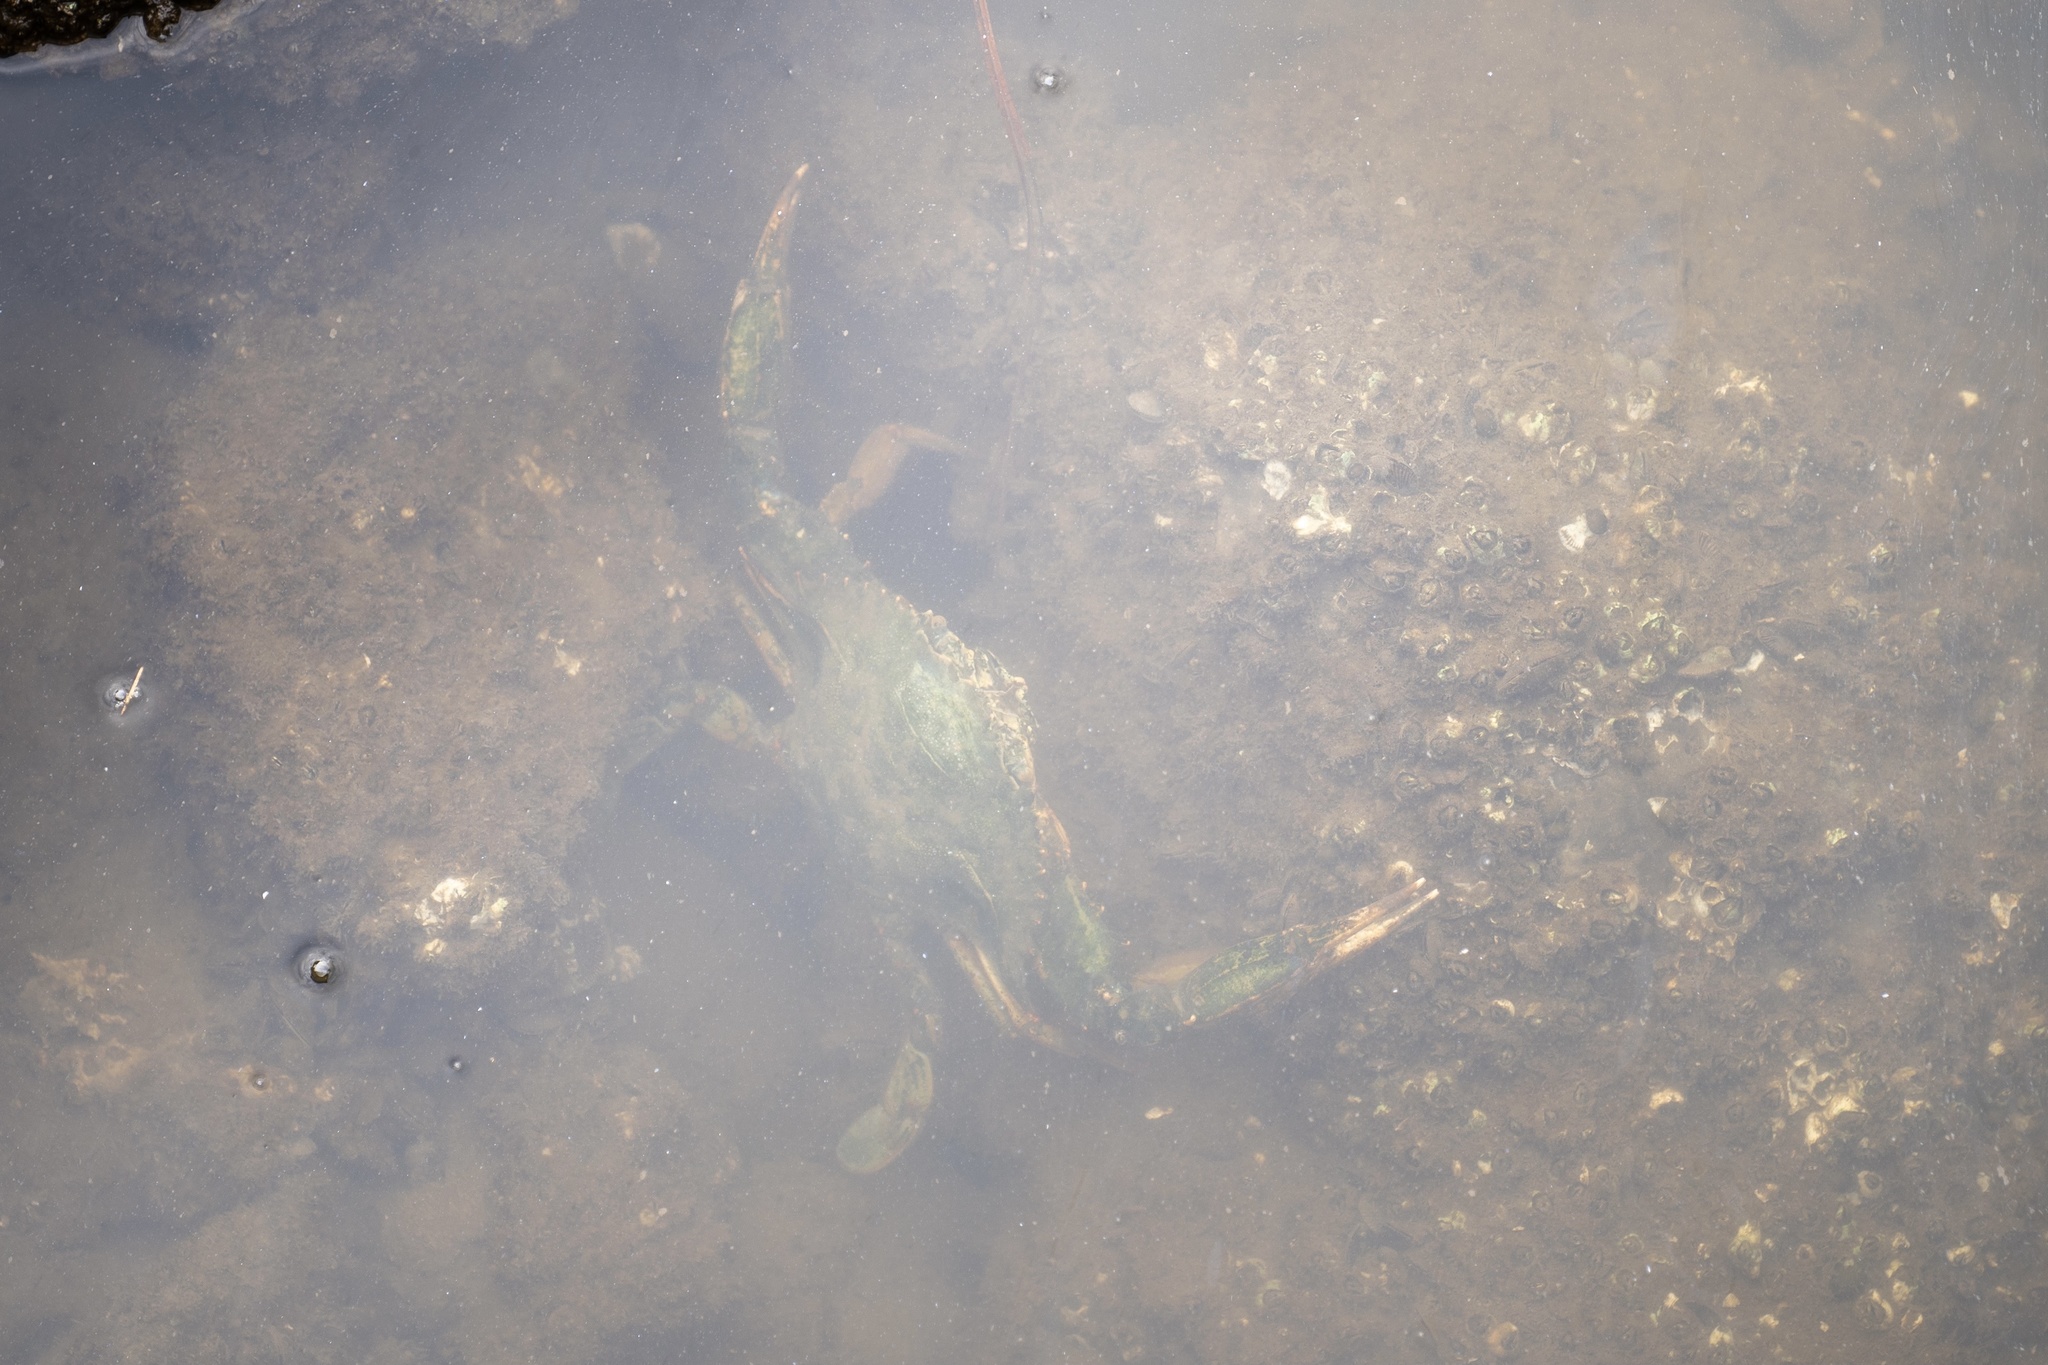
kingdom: Animalia
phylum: Arthropoda
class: Malacostraca
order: Decapoda
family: Portunidae
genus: Callinectes
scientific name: Callinectes sapidus
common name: Blue crab
